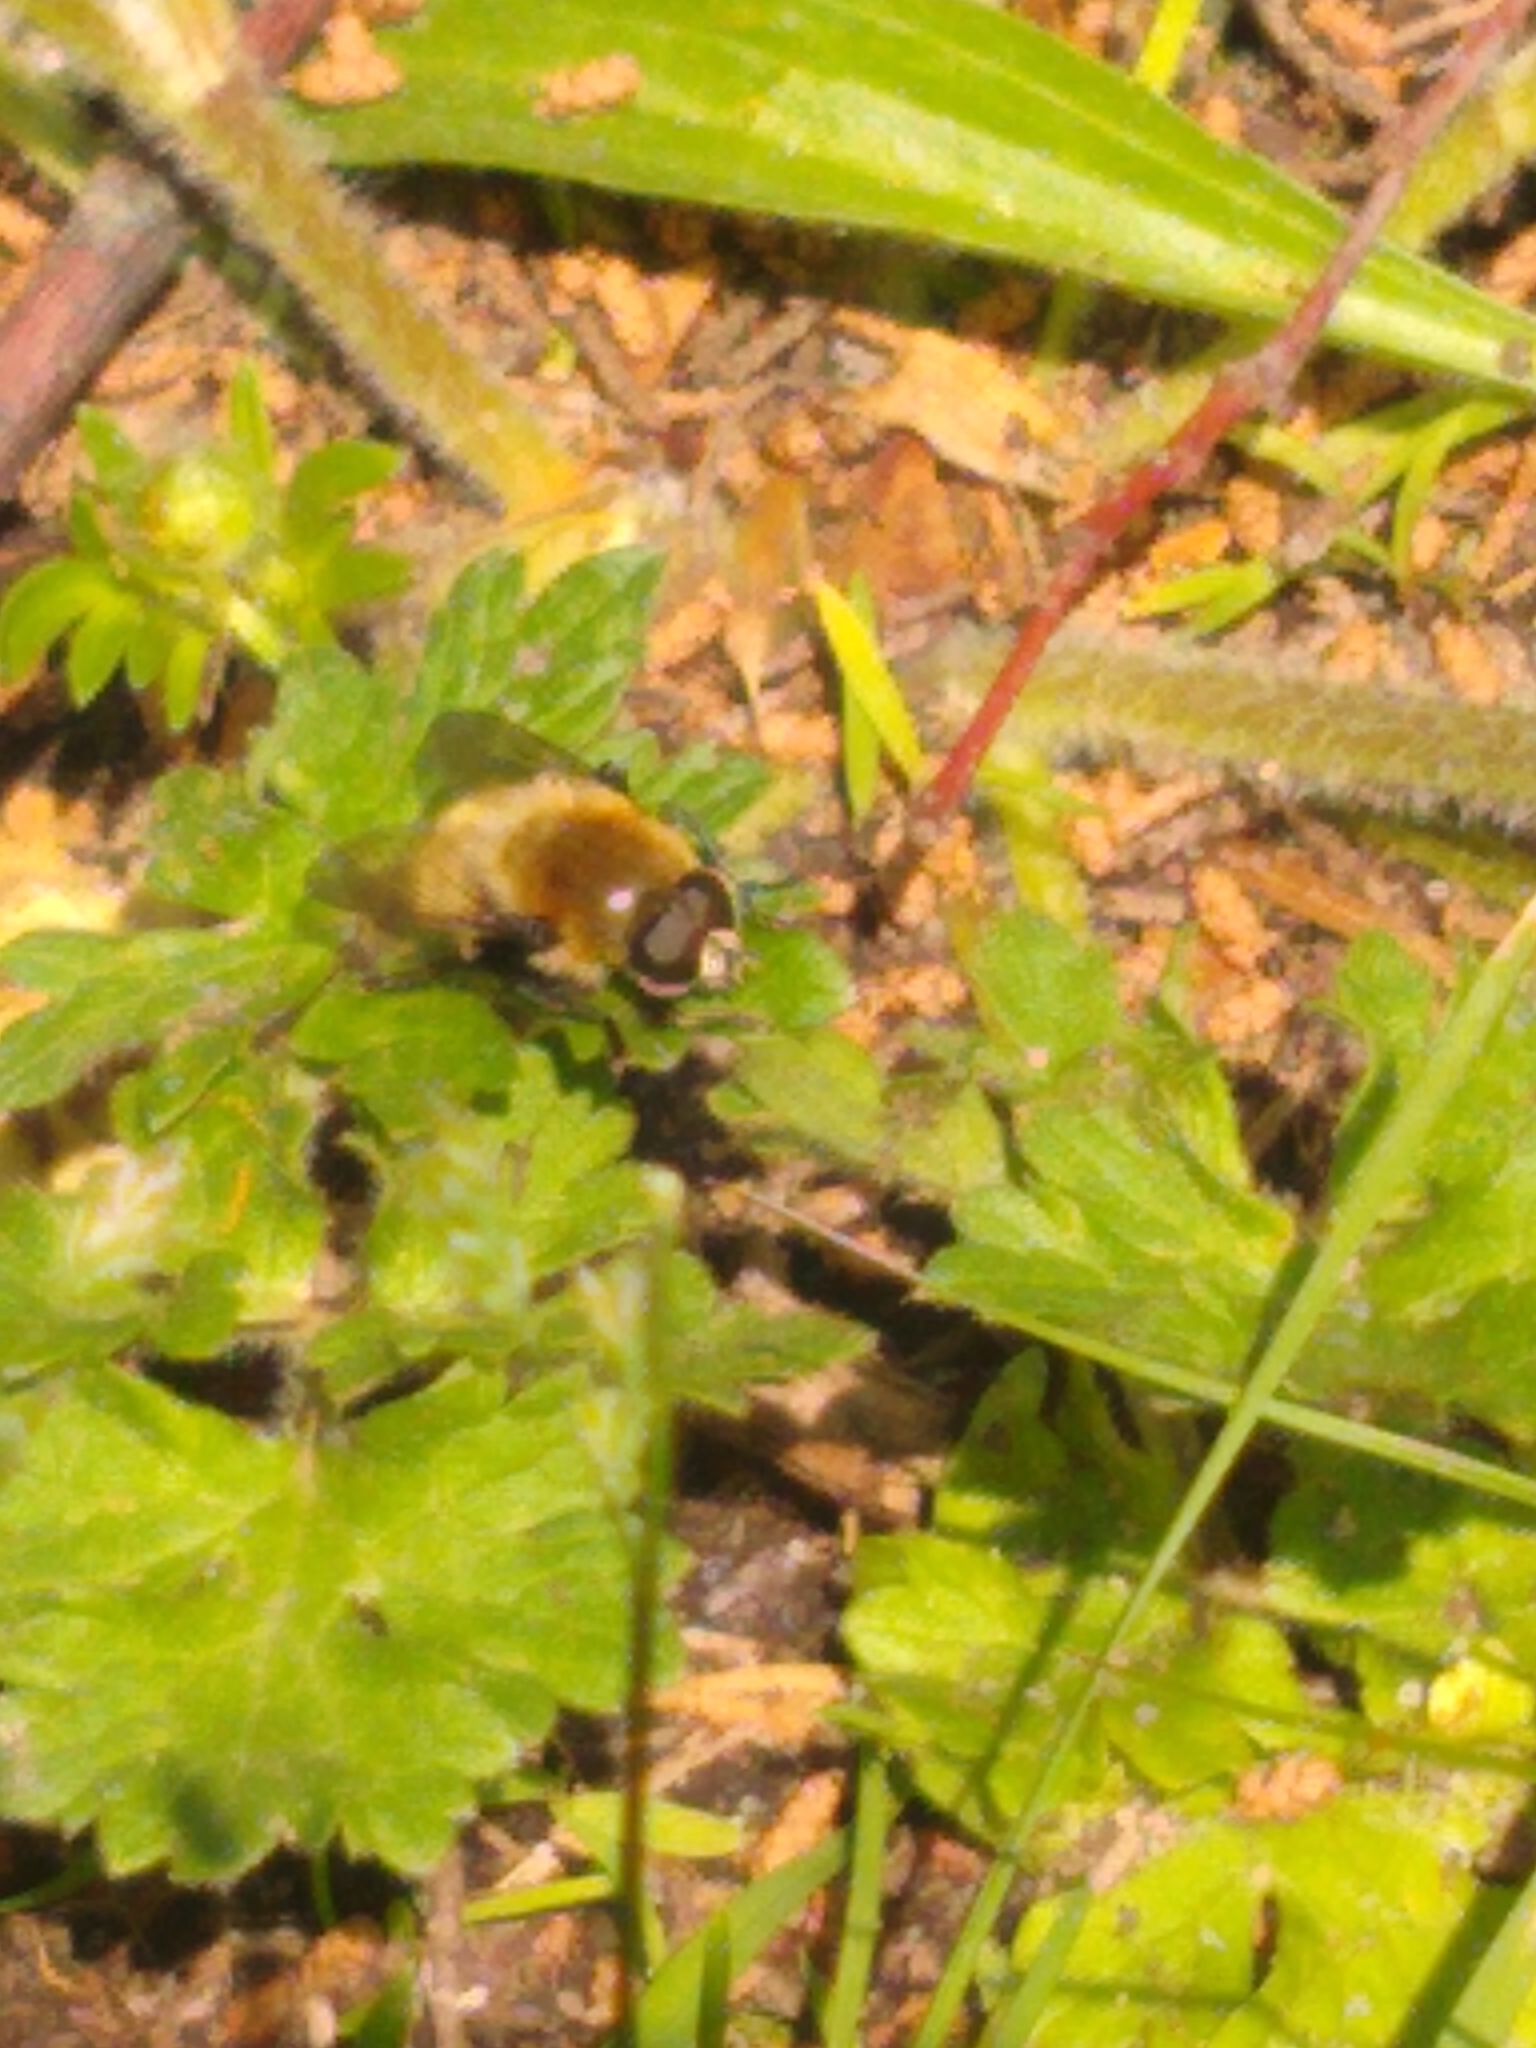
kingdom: Animalia
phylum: Arthropoda
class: Insecta
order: Diptera
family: Syrphidae
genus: Merodon
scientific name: Merodon equestris
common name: Greater bulb-fly
